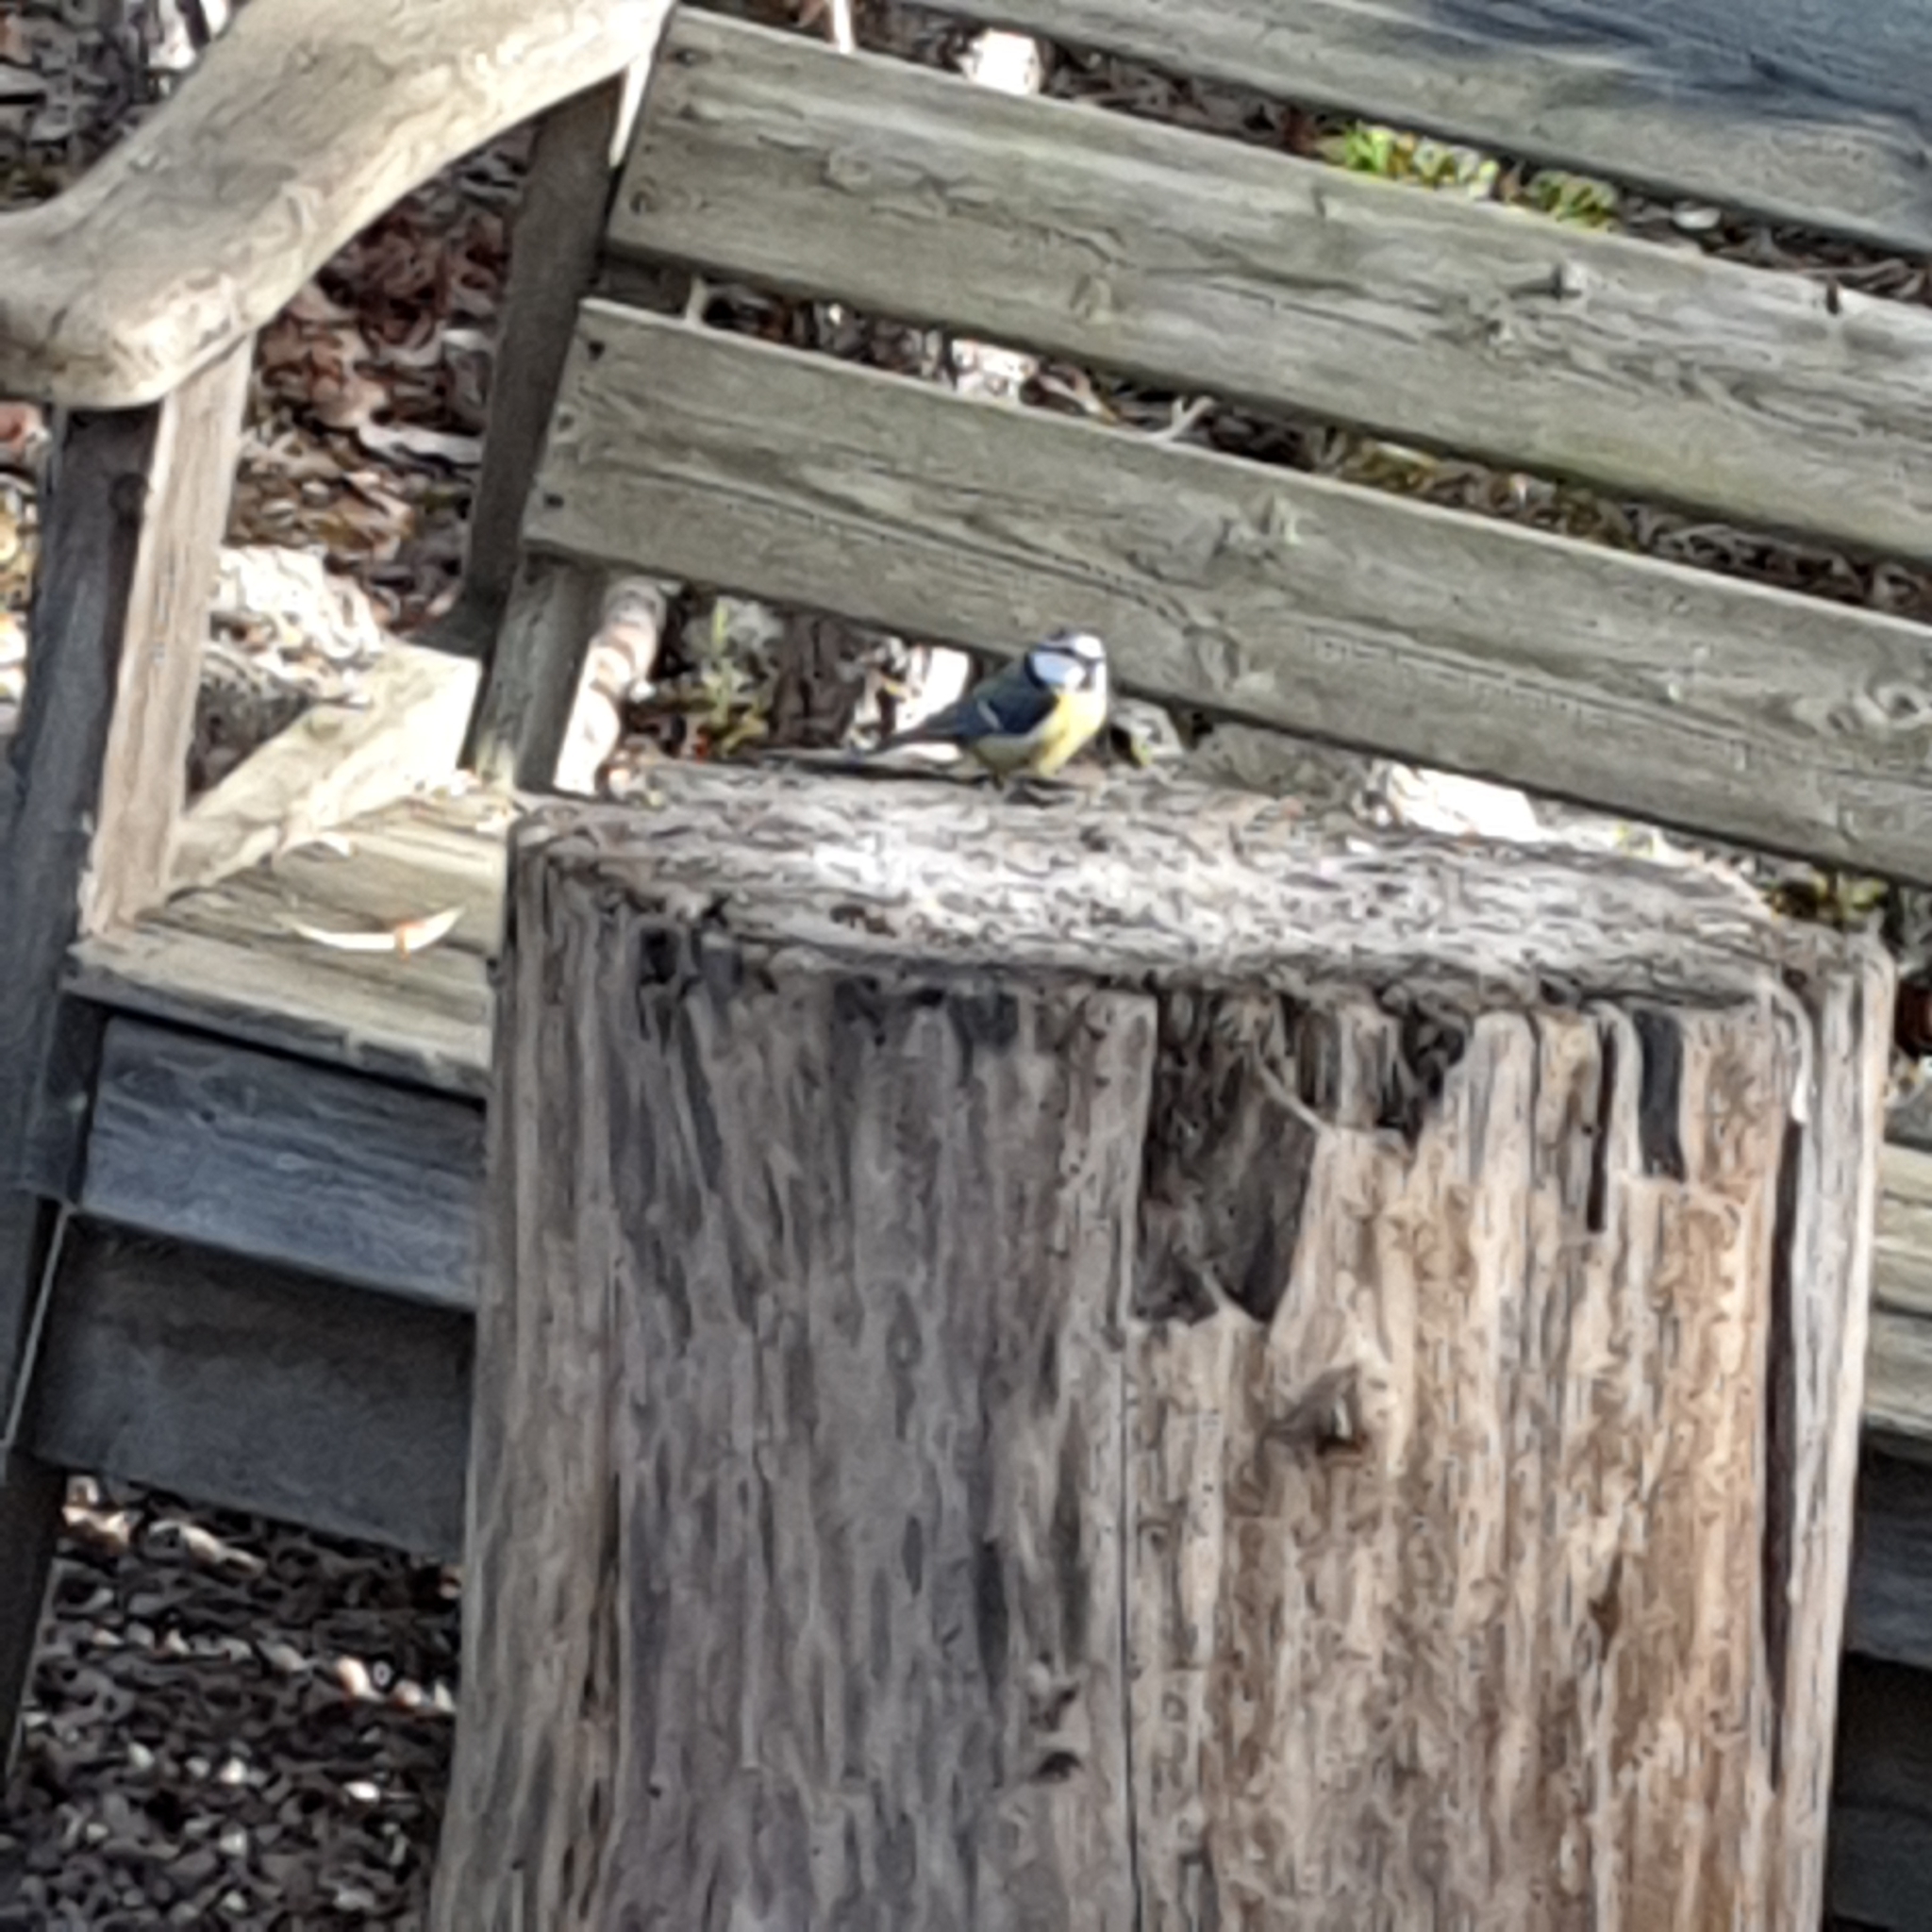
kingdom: Animalia
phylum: Chordata
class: Aves
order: Passeriformes
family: Paridae
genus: Cyanistes
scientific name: Cyanistes caeruleus
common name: Eurasian blue tit
